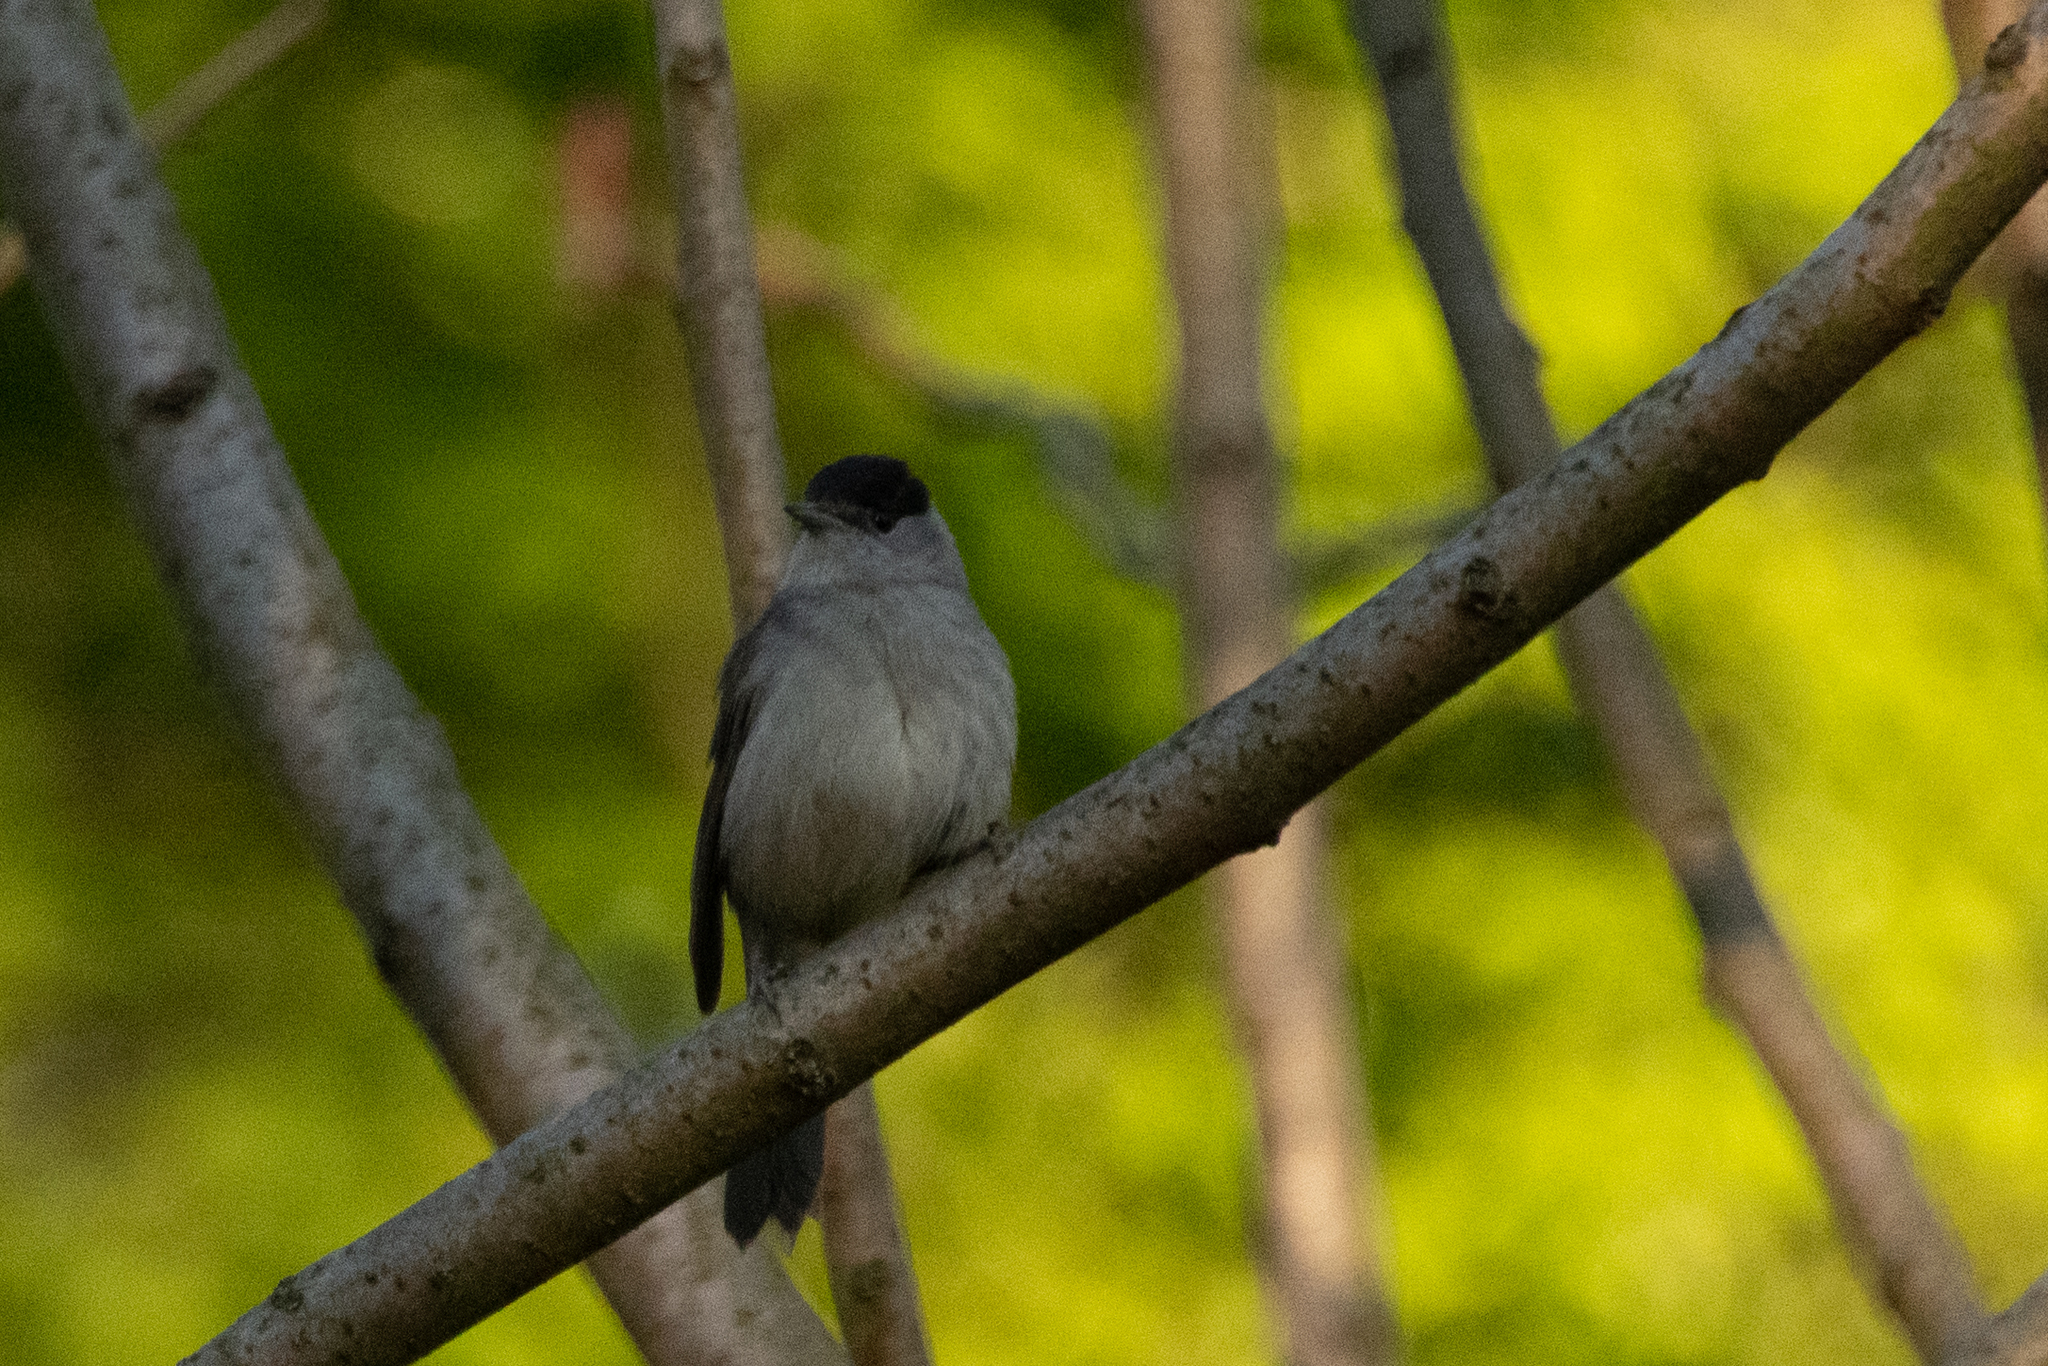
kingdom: Animalia
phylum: Chordata
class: Aves
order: Passeriformes
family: Sylviidae
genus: Sylvia
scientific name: Sylvia atricapilla
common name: Eurasian blackcap
